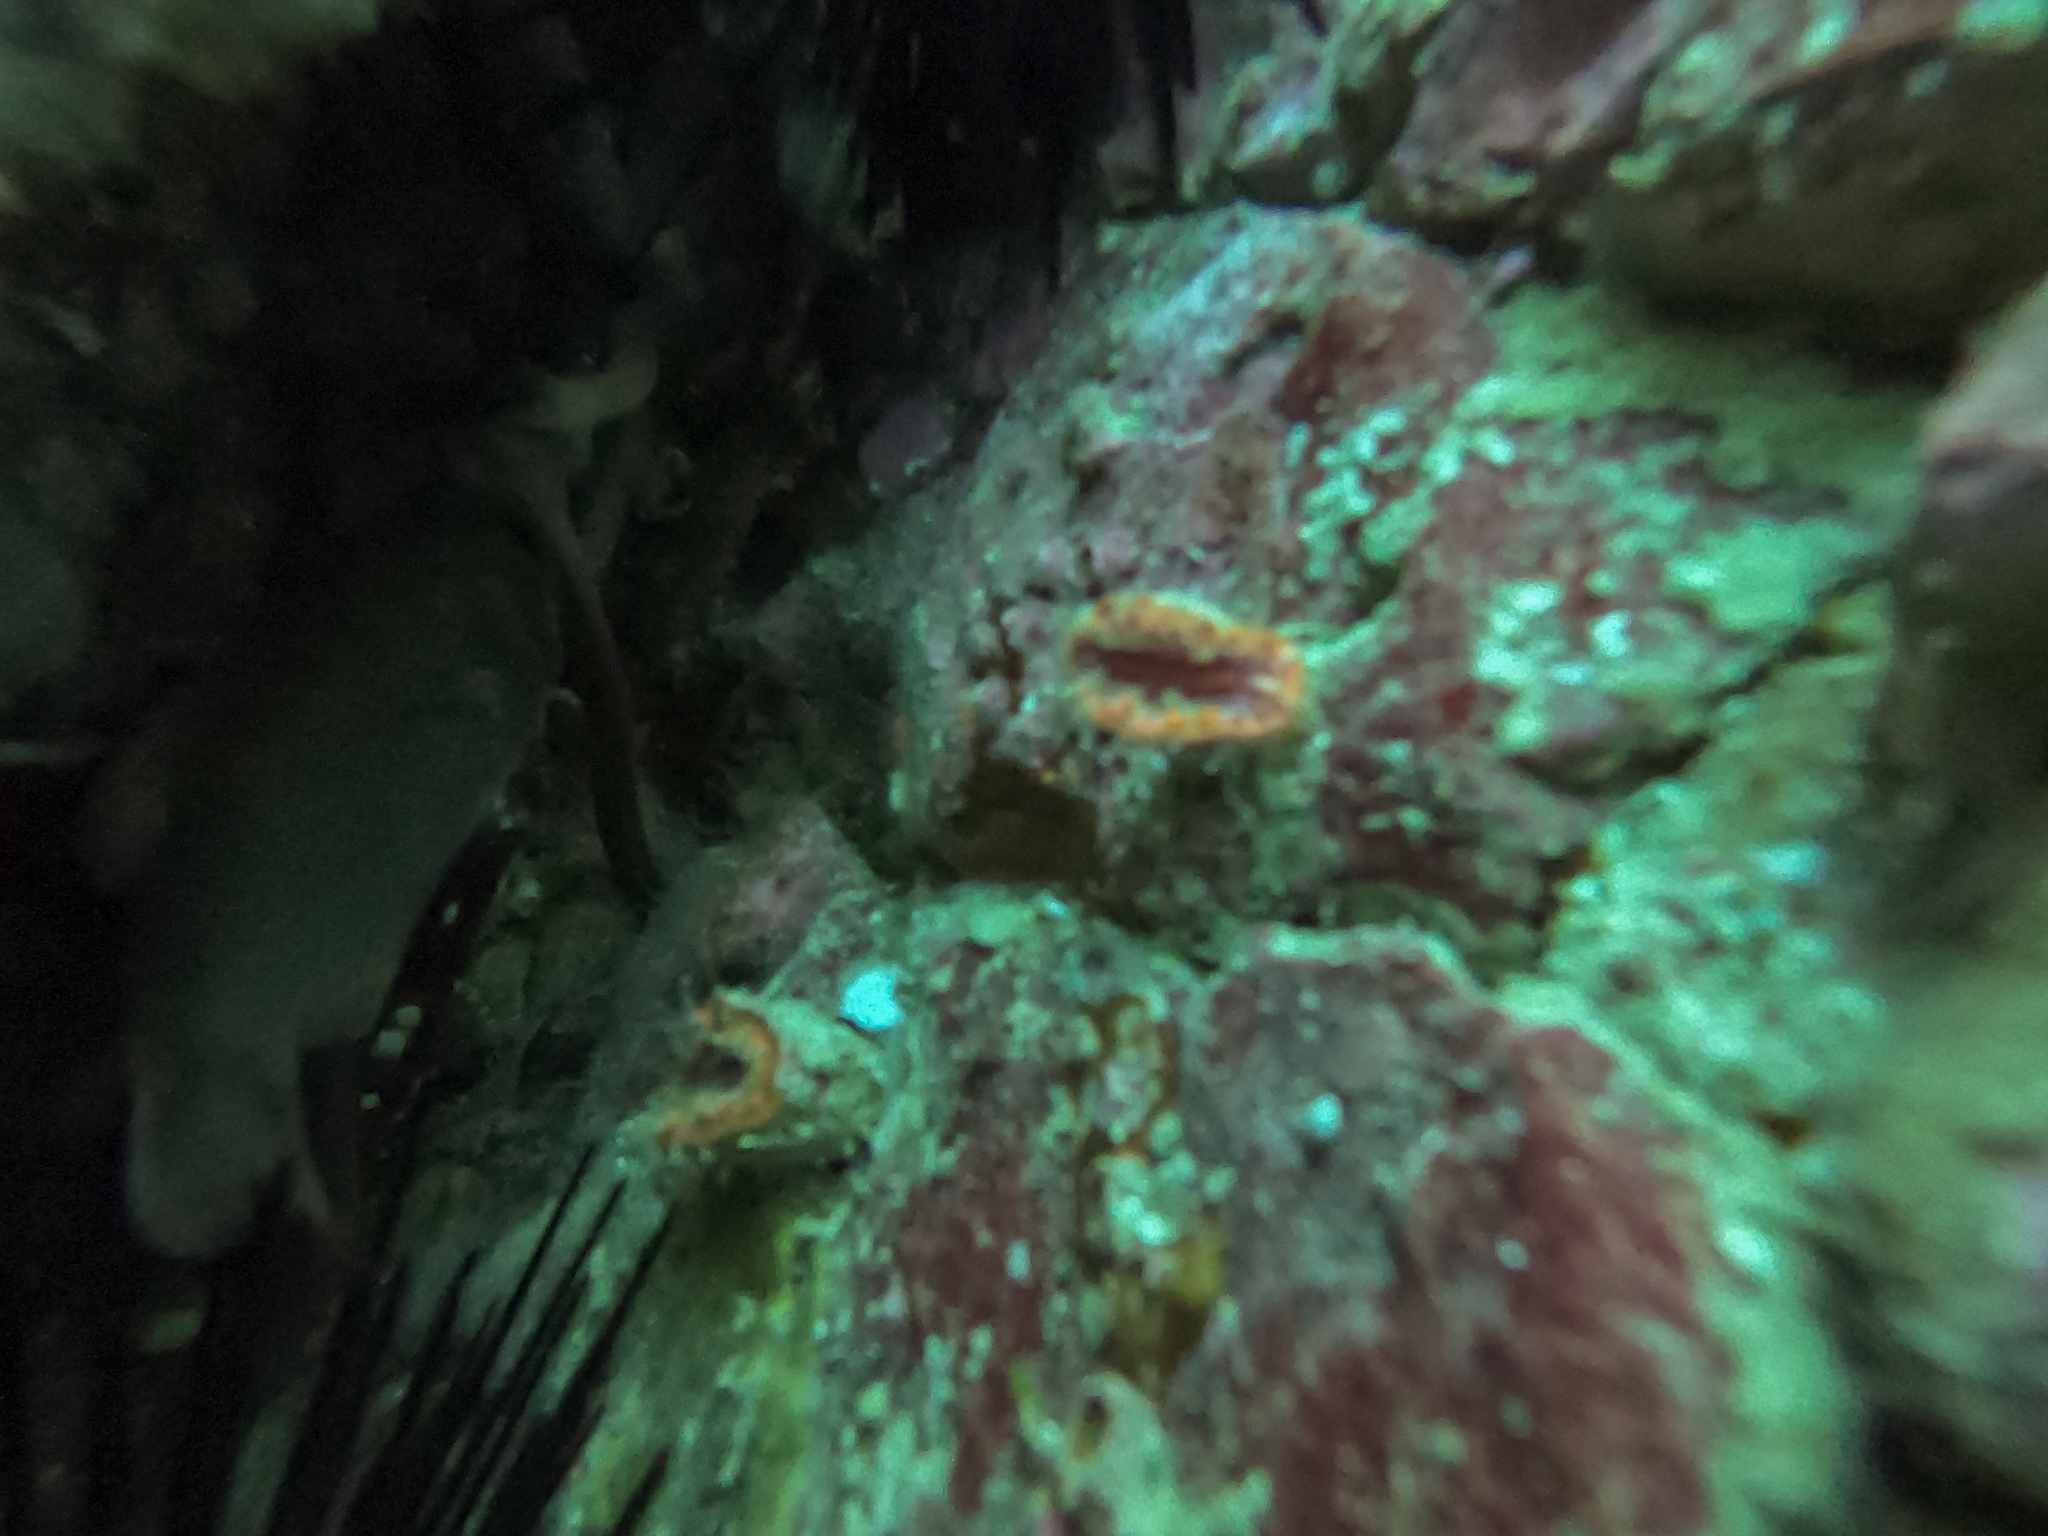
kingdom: Animalia
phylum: Cnidaria
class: Anthozoa
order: Scleractinia
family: Flabellidae
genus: Monomyces
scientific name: Monomyces rubrum
